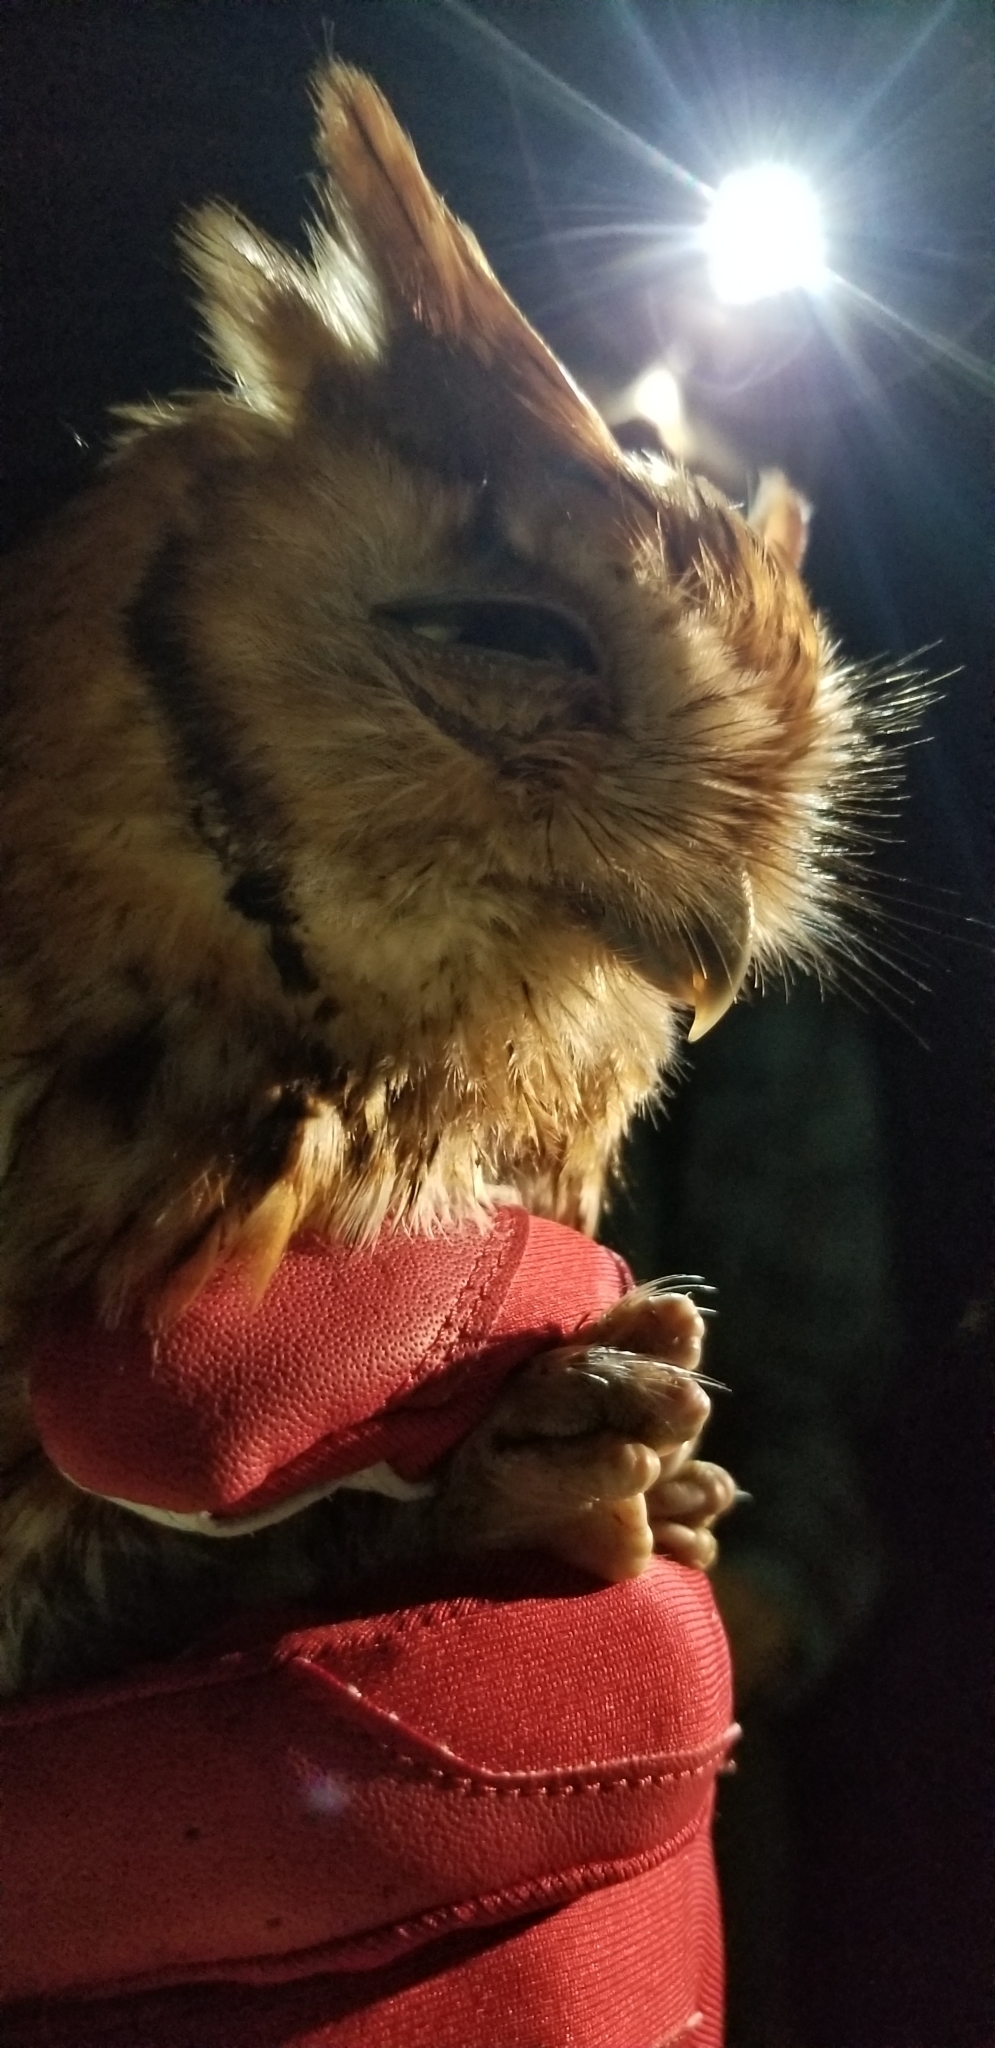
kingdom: Animalia
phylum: Chordata
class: Aves
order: Strigiformes
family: Strigidae
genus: Megascops
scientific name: Megascops asio
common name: Eastern screech-owl
